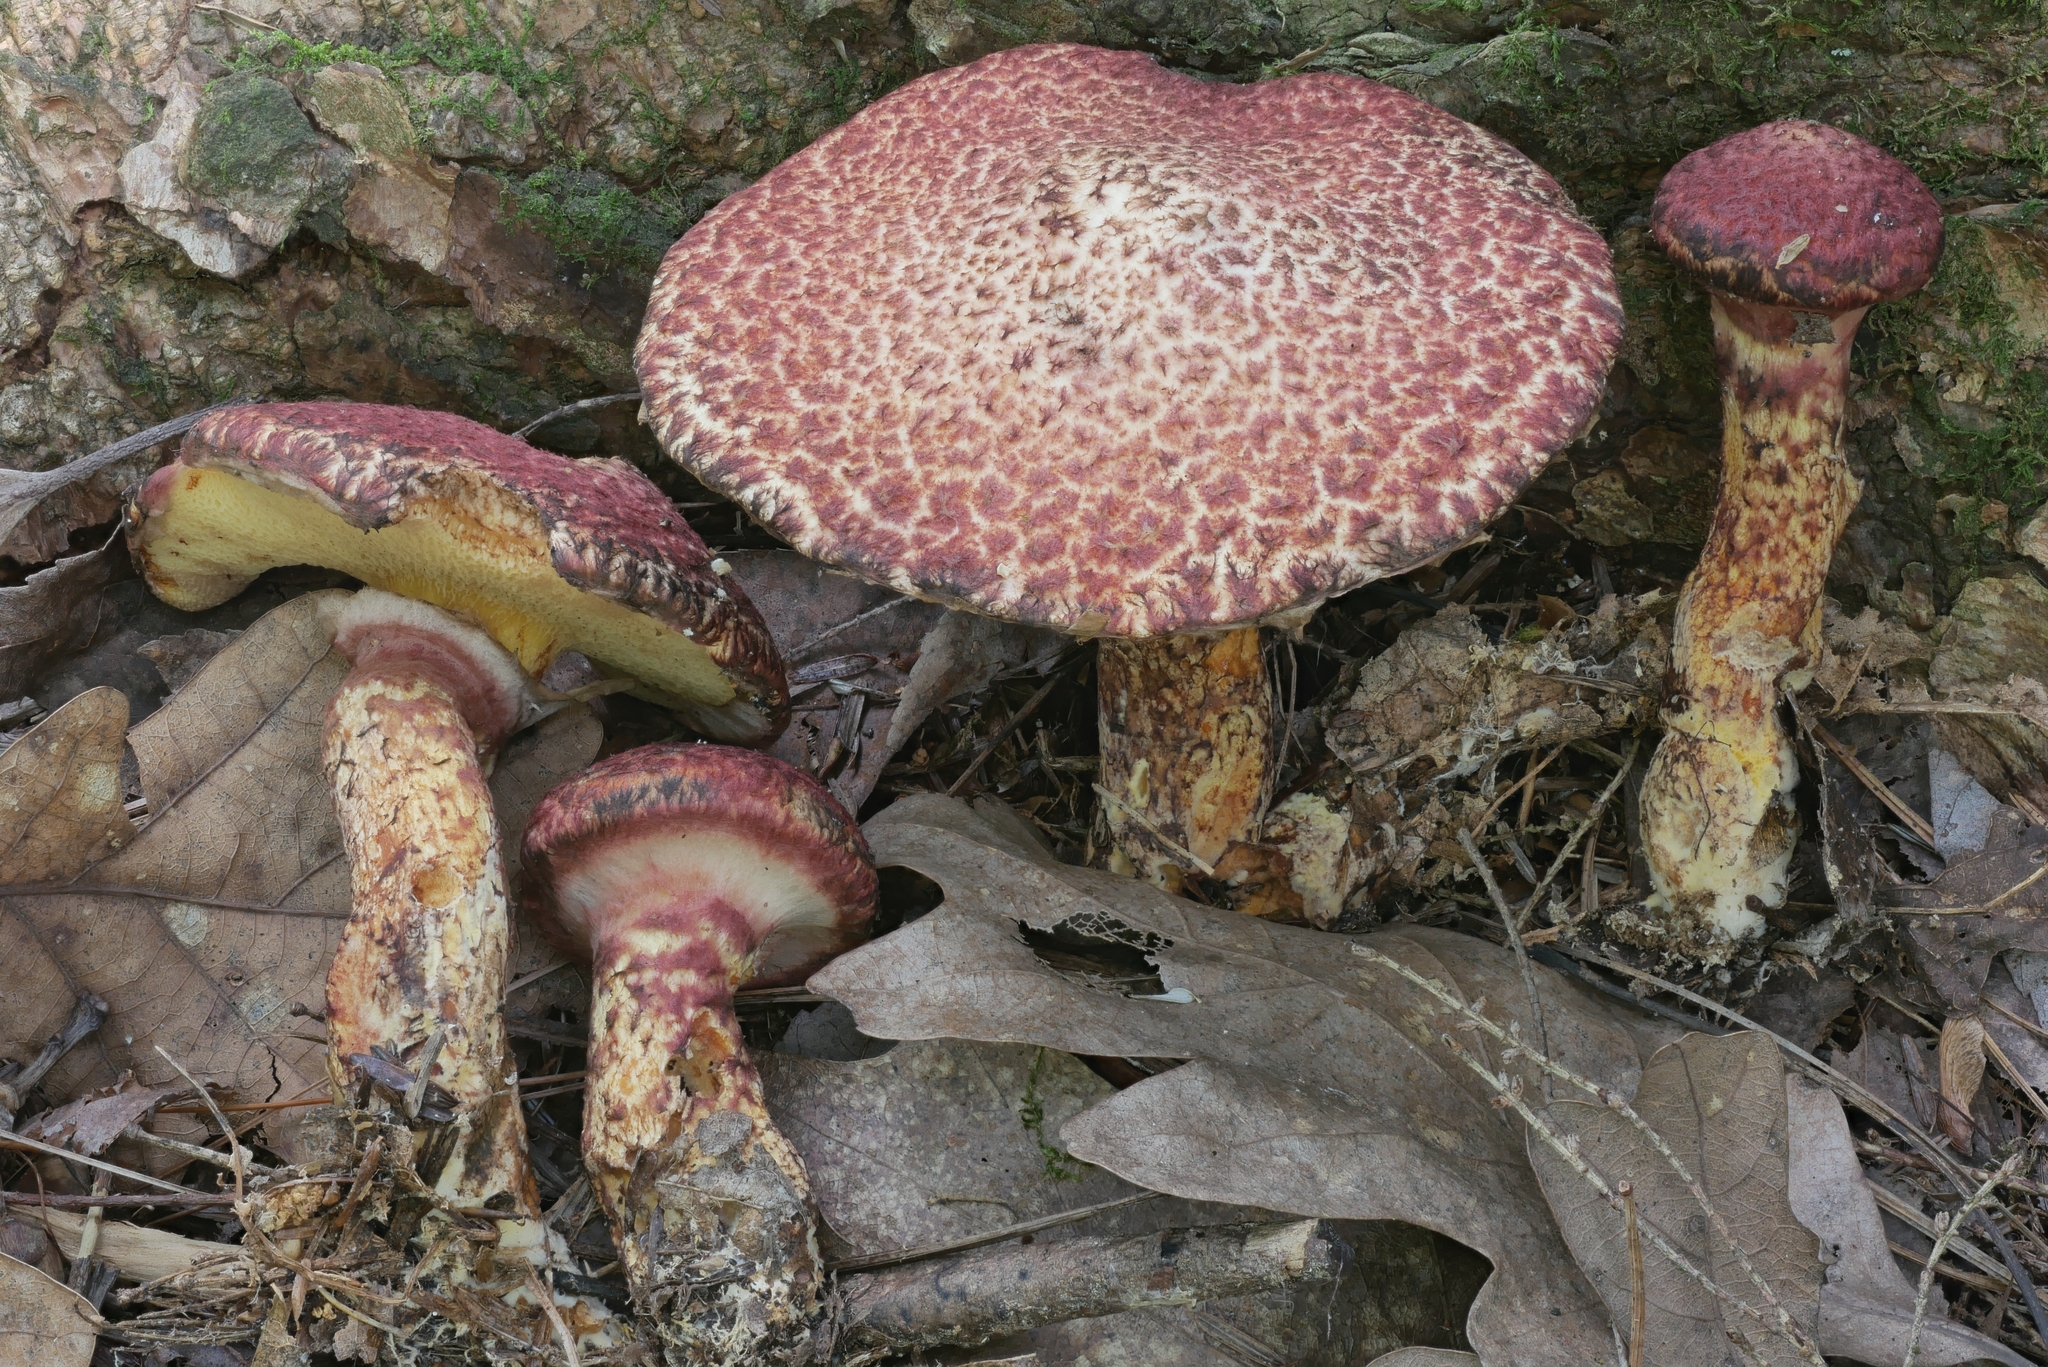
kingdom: Fungi
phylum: Basidiomycota
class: Agaricomycetes
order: Boletales
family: Suillaceae
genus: Suillus
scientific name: Suillus spraguei
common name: Painted suillus
